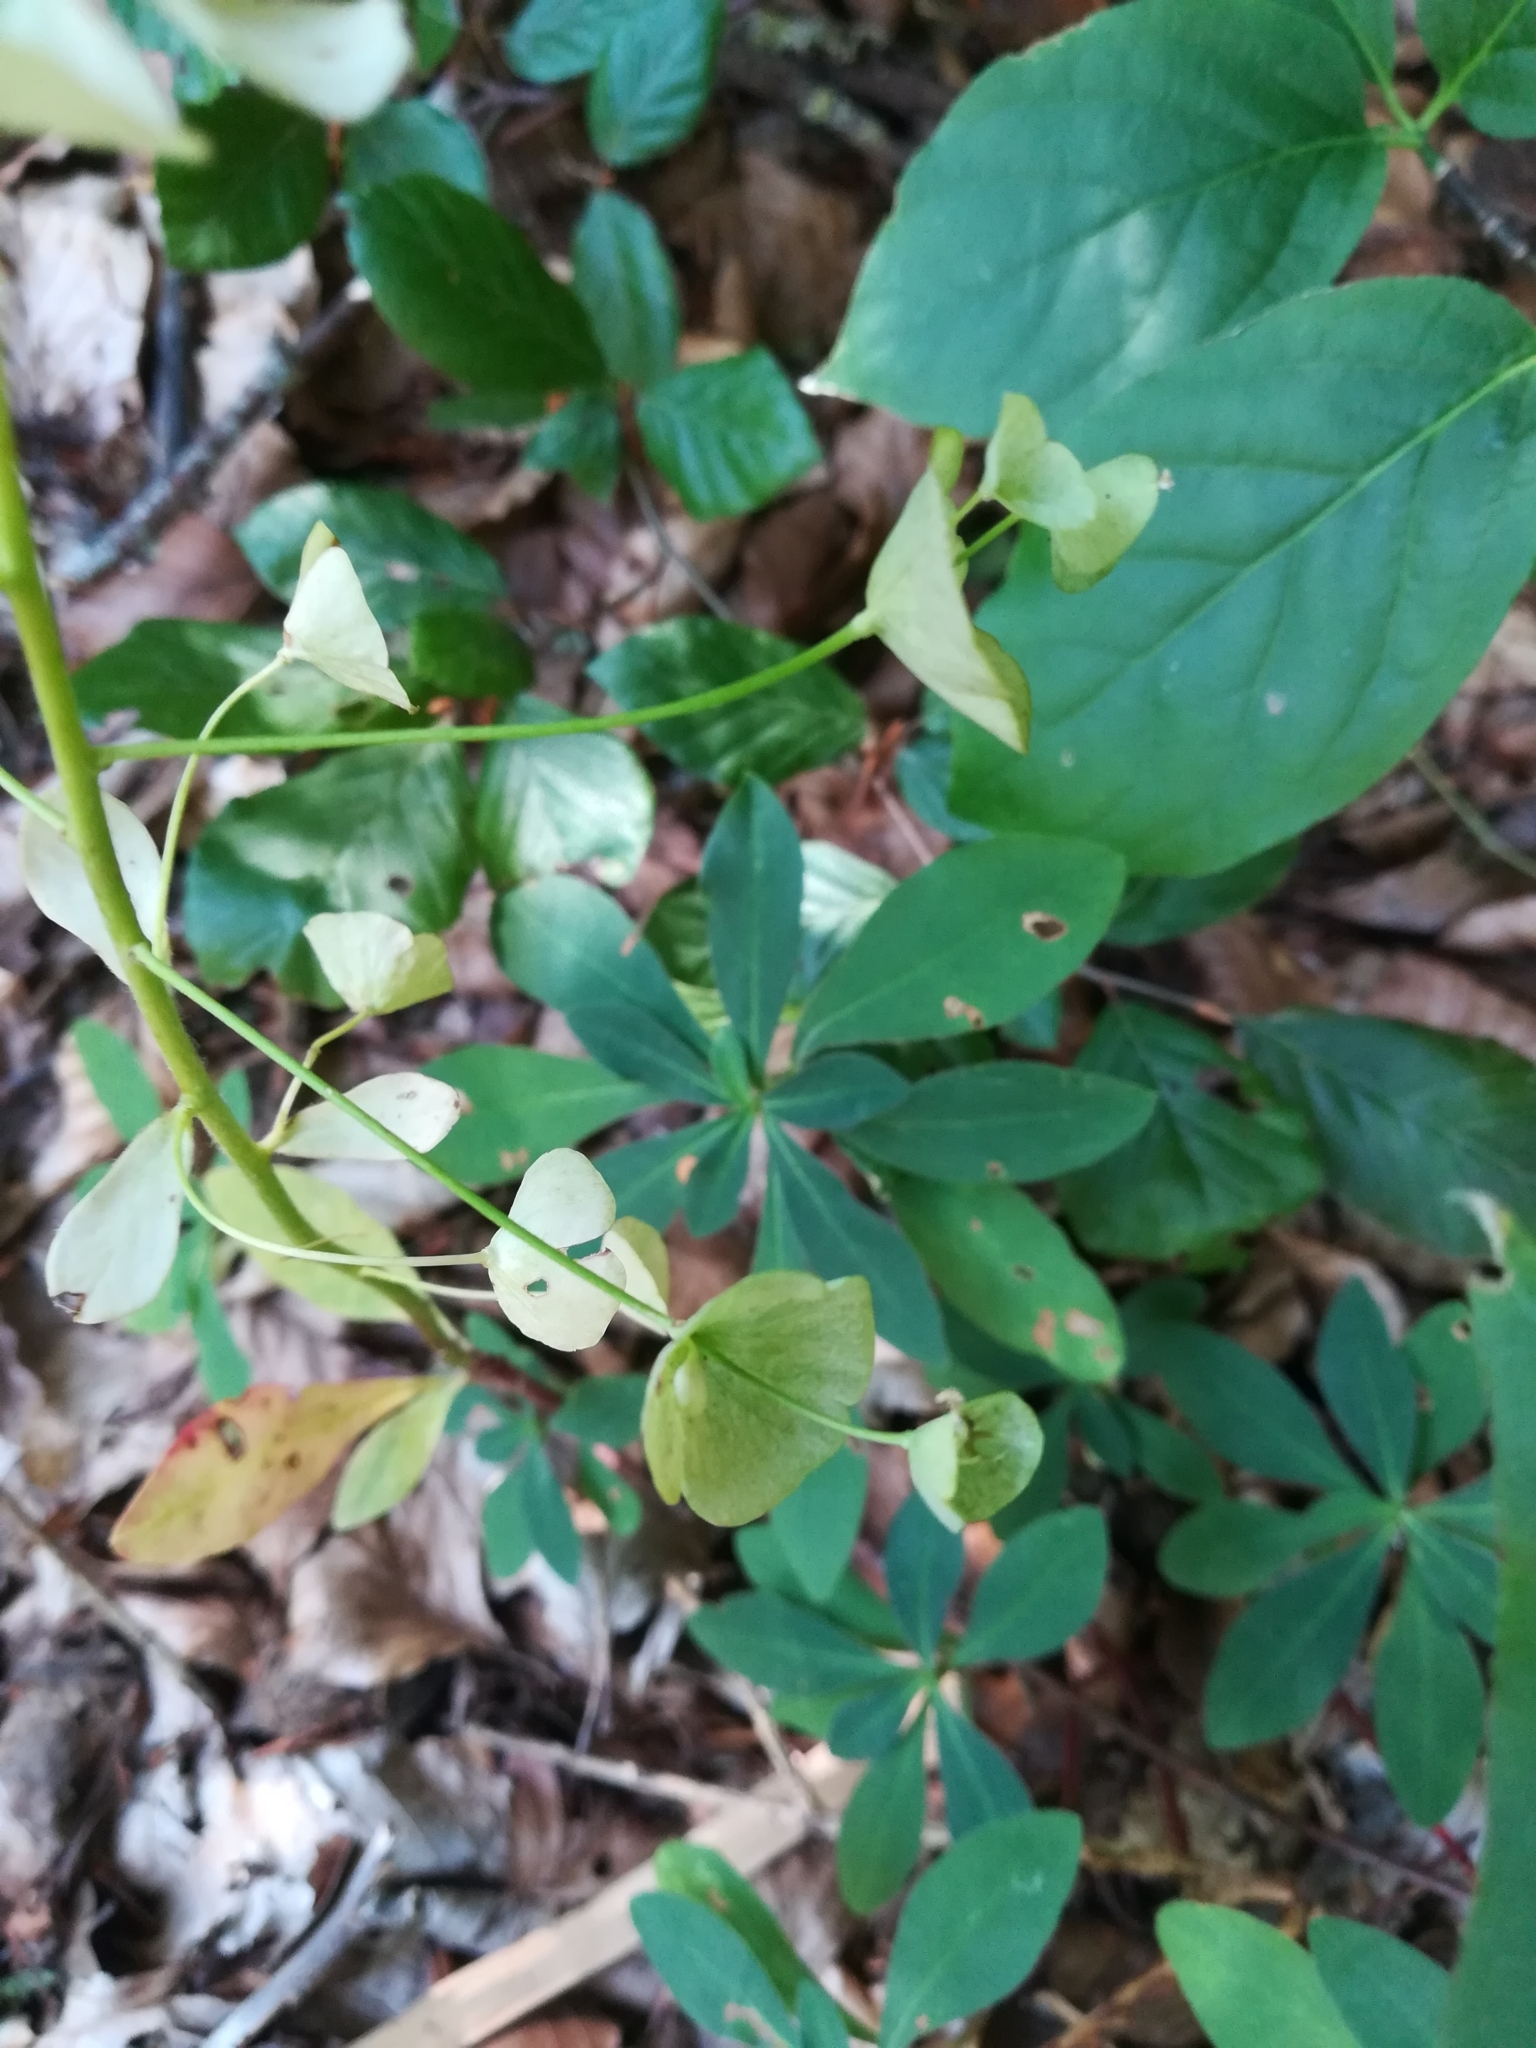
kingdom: Plantae
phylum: Tracheophyta
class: Magnoliopsida
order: Malpighiales
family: Euphorbiaceae
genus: Euphorbia
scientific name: Euphorbia amygdaloides
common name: Wood spurge
